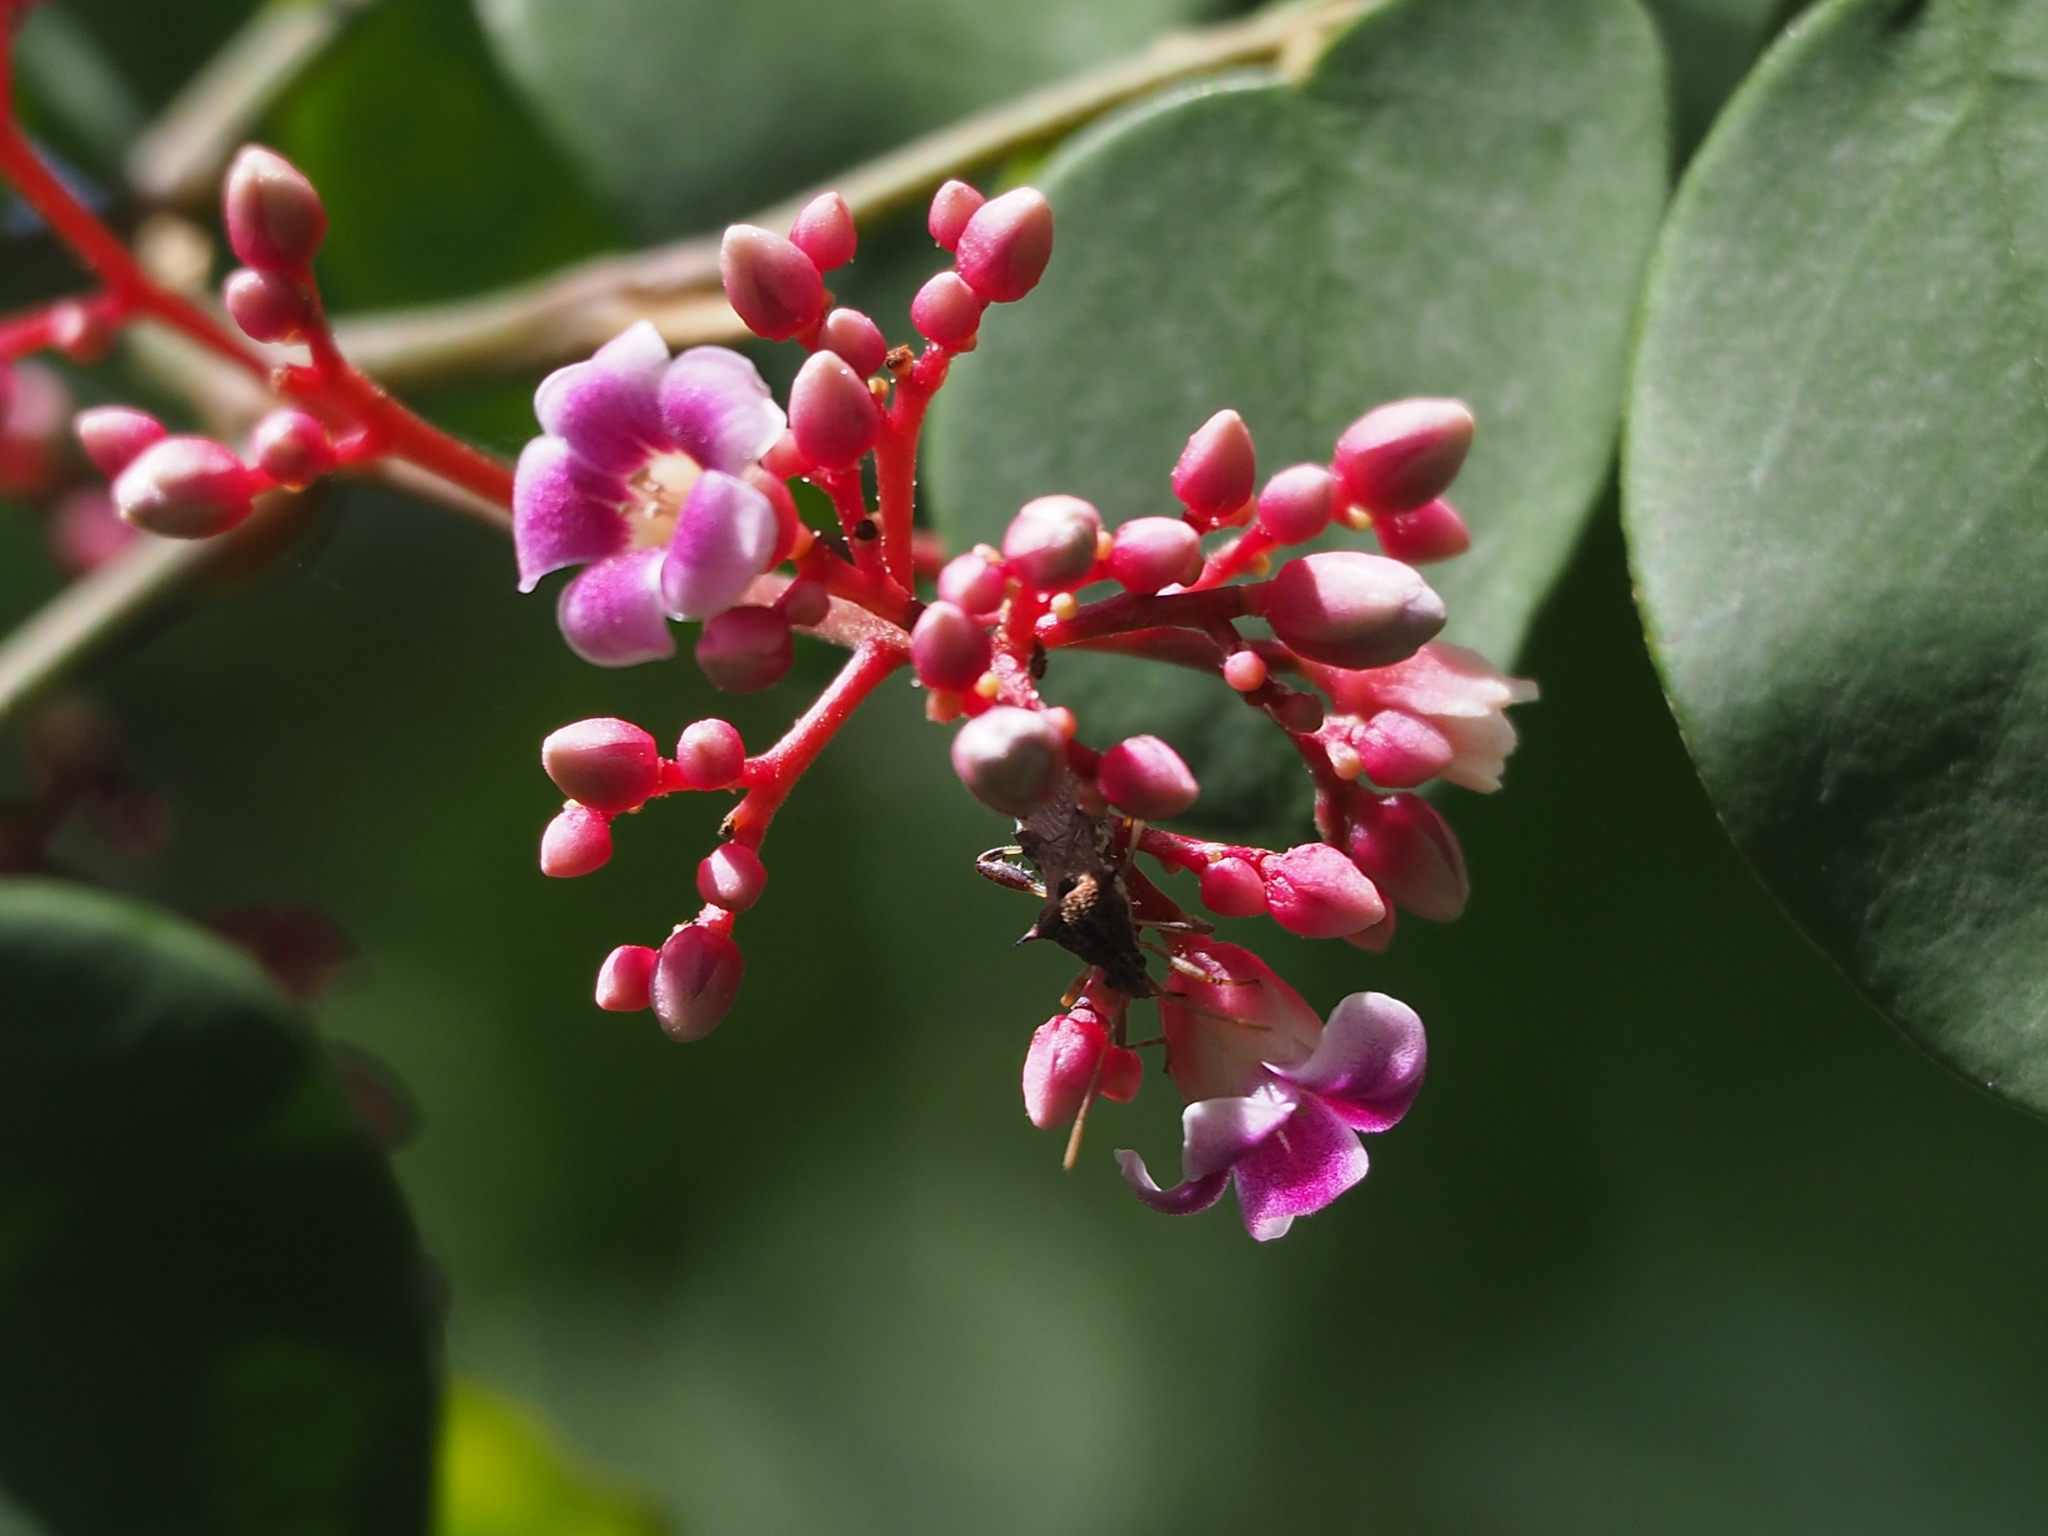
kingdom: Plantae
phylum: Tracheophyta
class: Magnoliopsida
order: Oxalidales
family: Oxalidaceae
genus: Averrhoa
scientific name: Averrhoa carambola
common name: Blimbing
